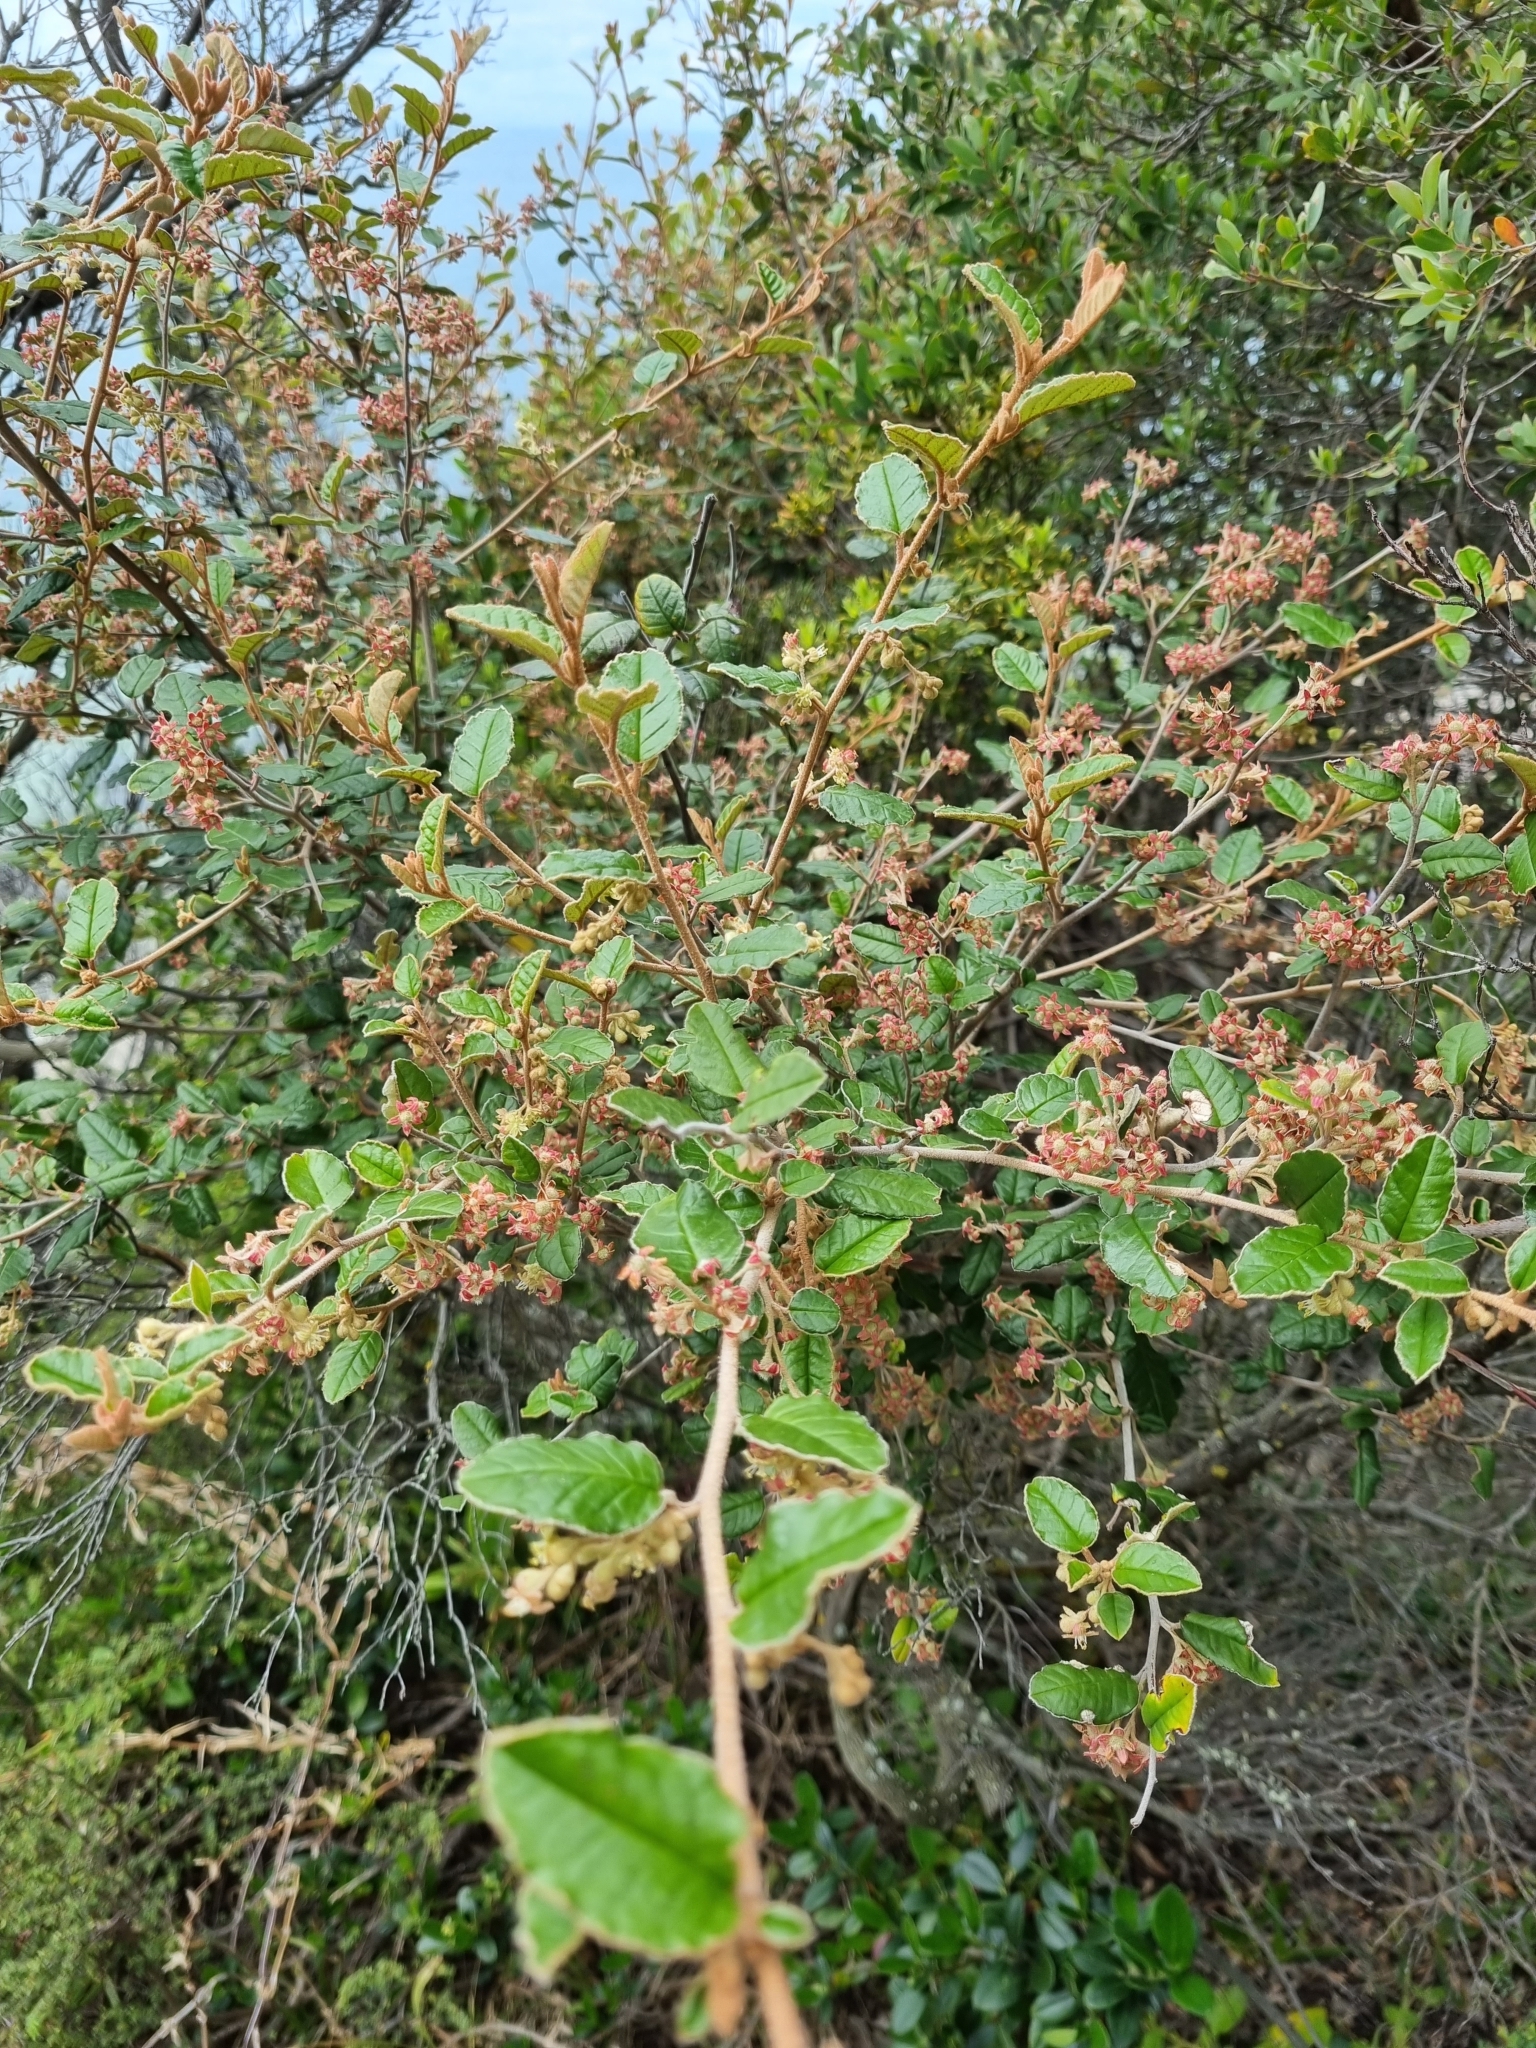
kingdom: Plantae
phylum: Tracheophyta
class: Magnoliopsida
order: Rosales
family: Rhamnaceae
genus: Pomaderris
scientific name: Pomaderris paniculosa
